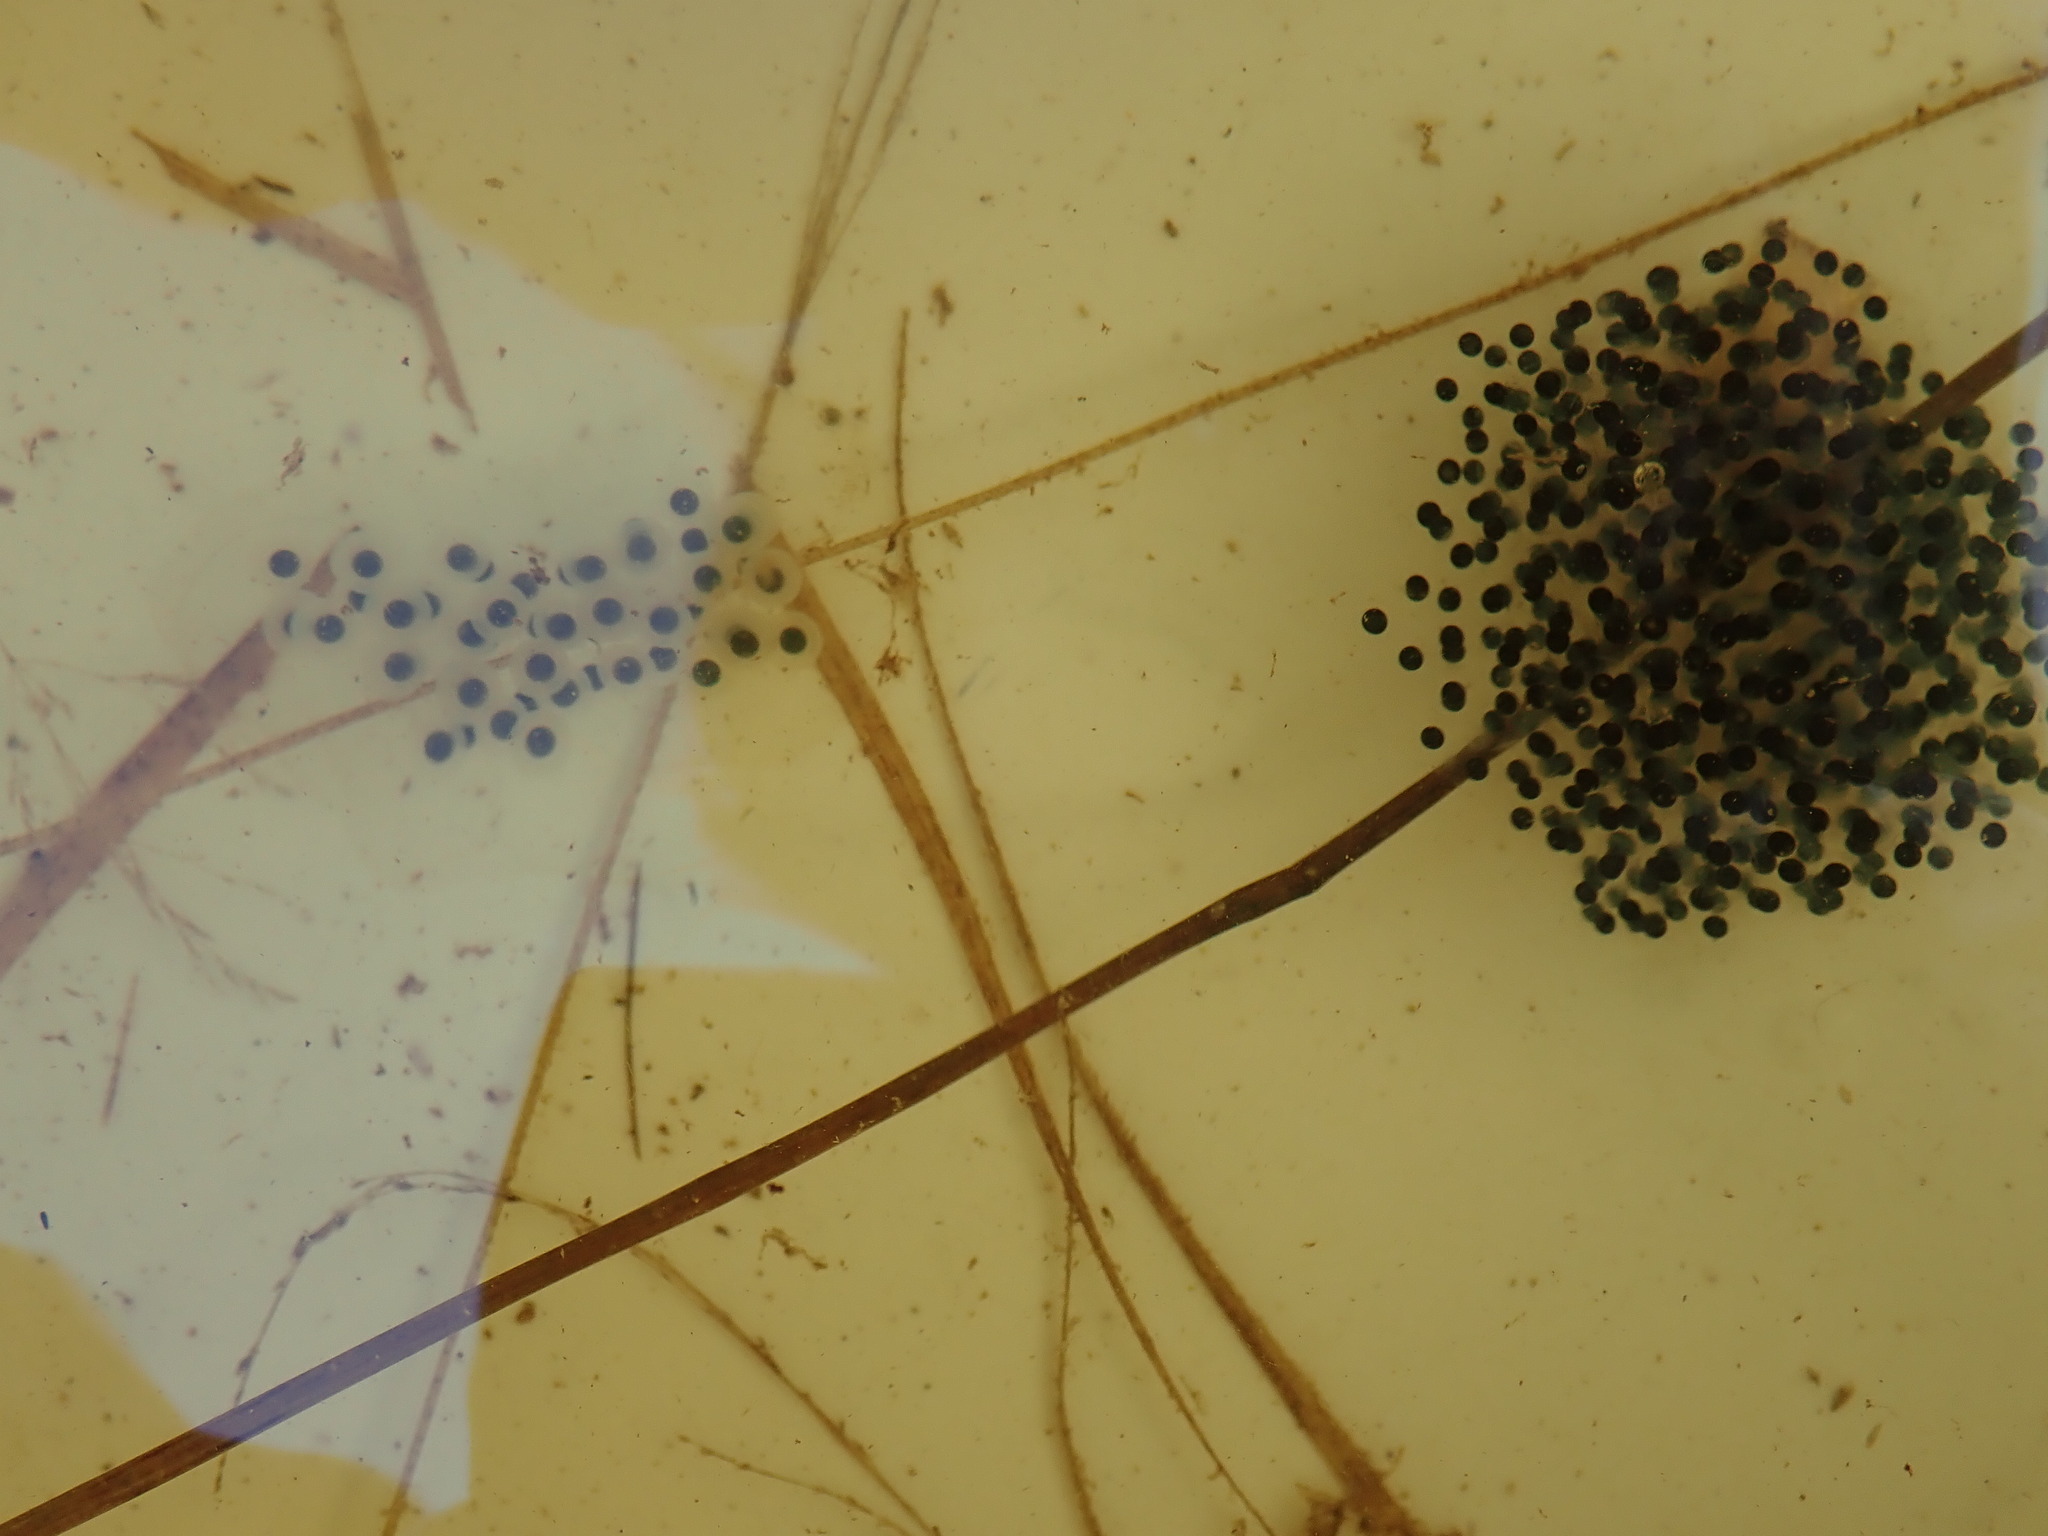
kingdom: Animalia
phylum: Chordata
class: Amphibia
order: Caudata
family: Ambystomatidae
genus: Ambystoma
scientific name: Ambystoma maculatum
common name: Spotted salamander
